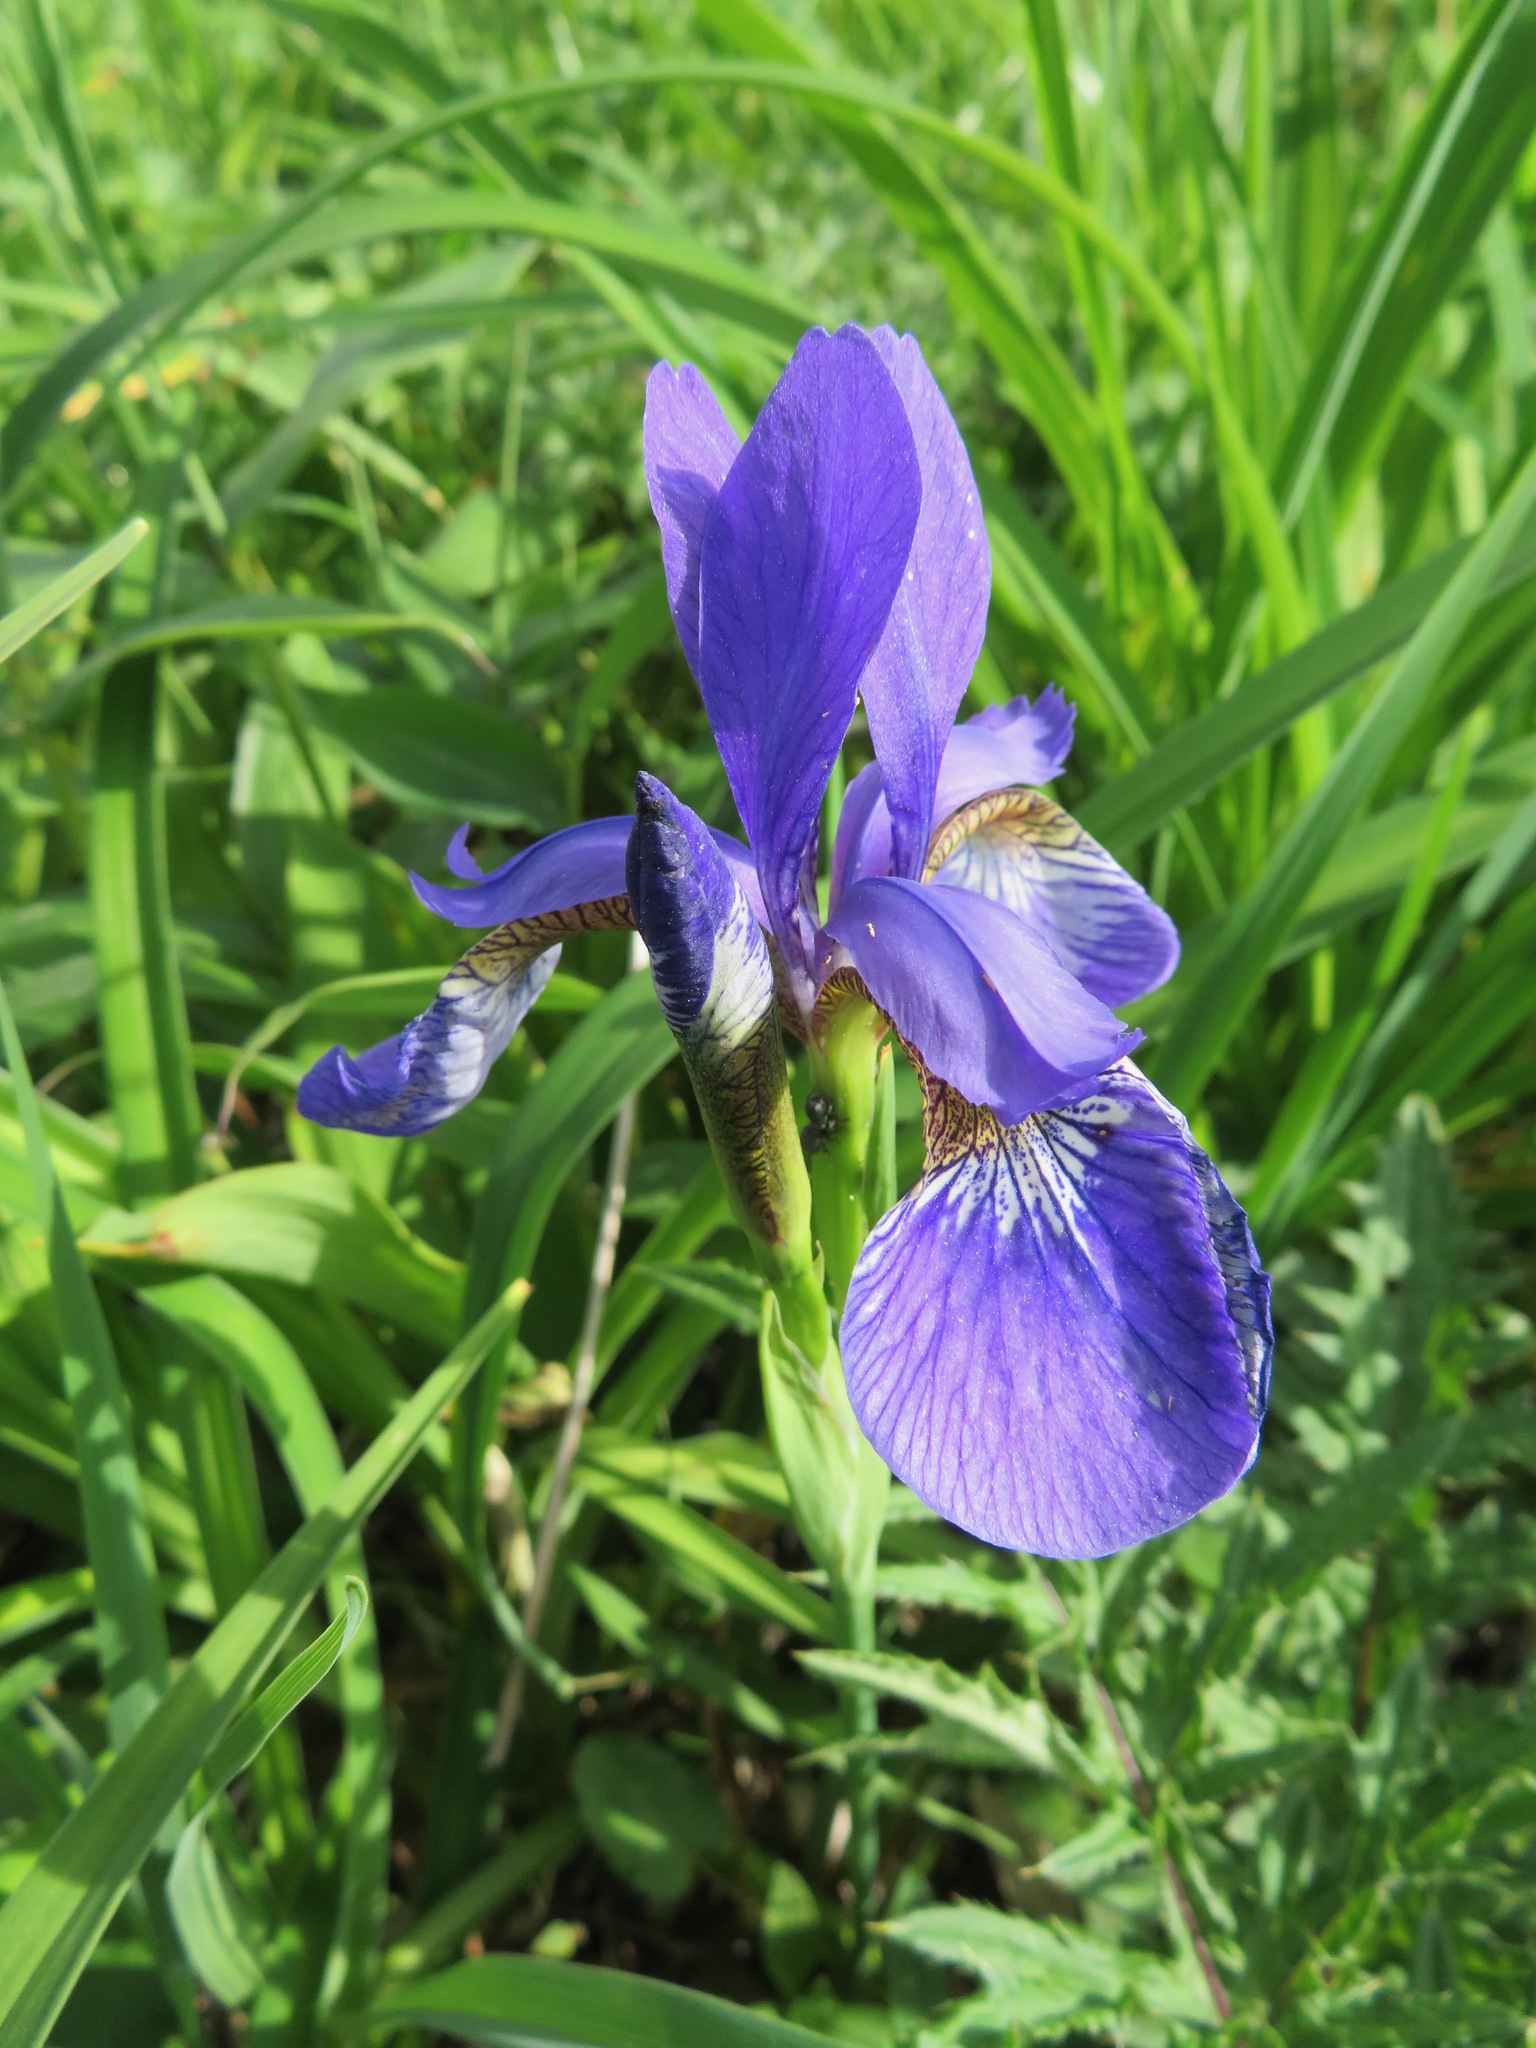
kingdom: Plantae
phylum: Tracheophyta
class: Liliopsida
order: Asparagales
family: Iridaceae
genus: Iris
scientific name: Iris sanguinea
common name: Blood iris
